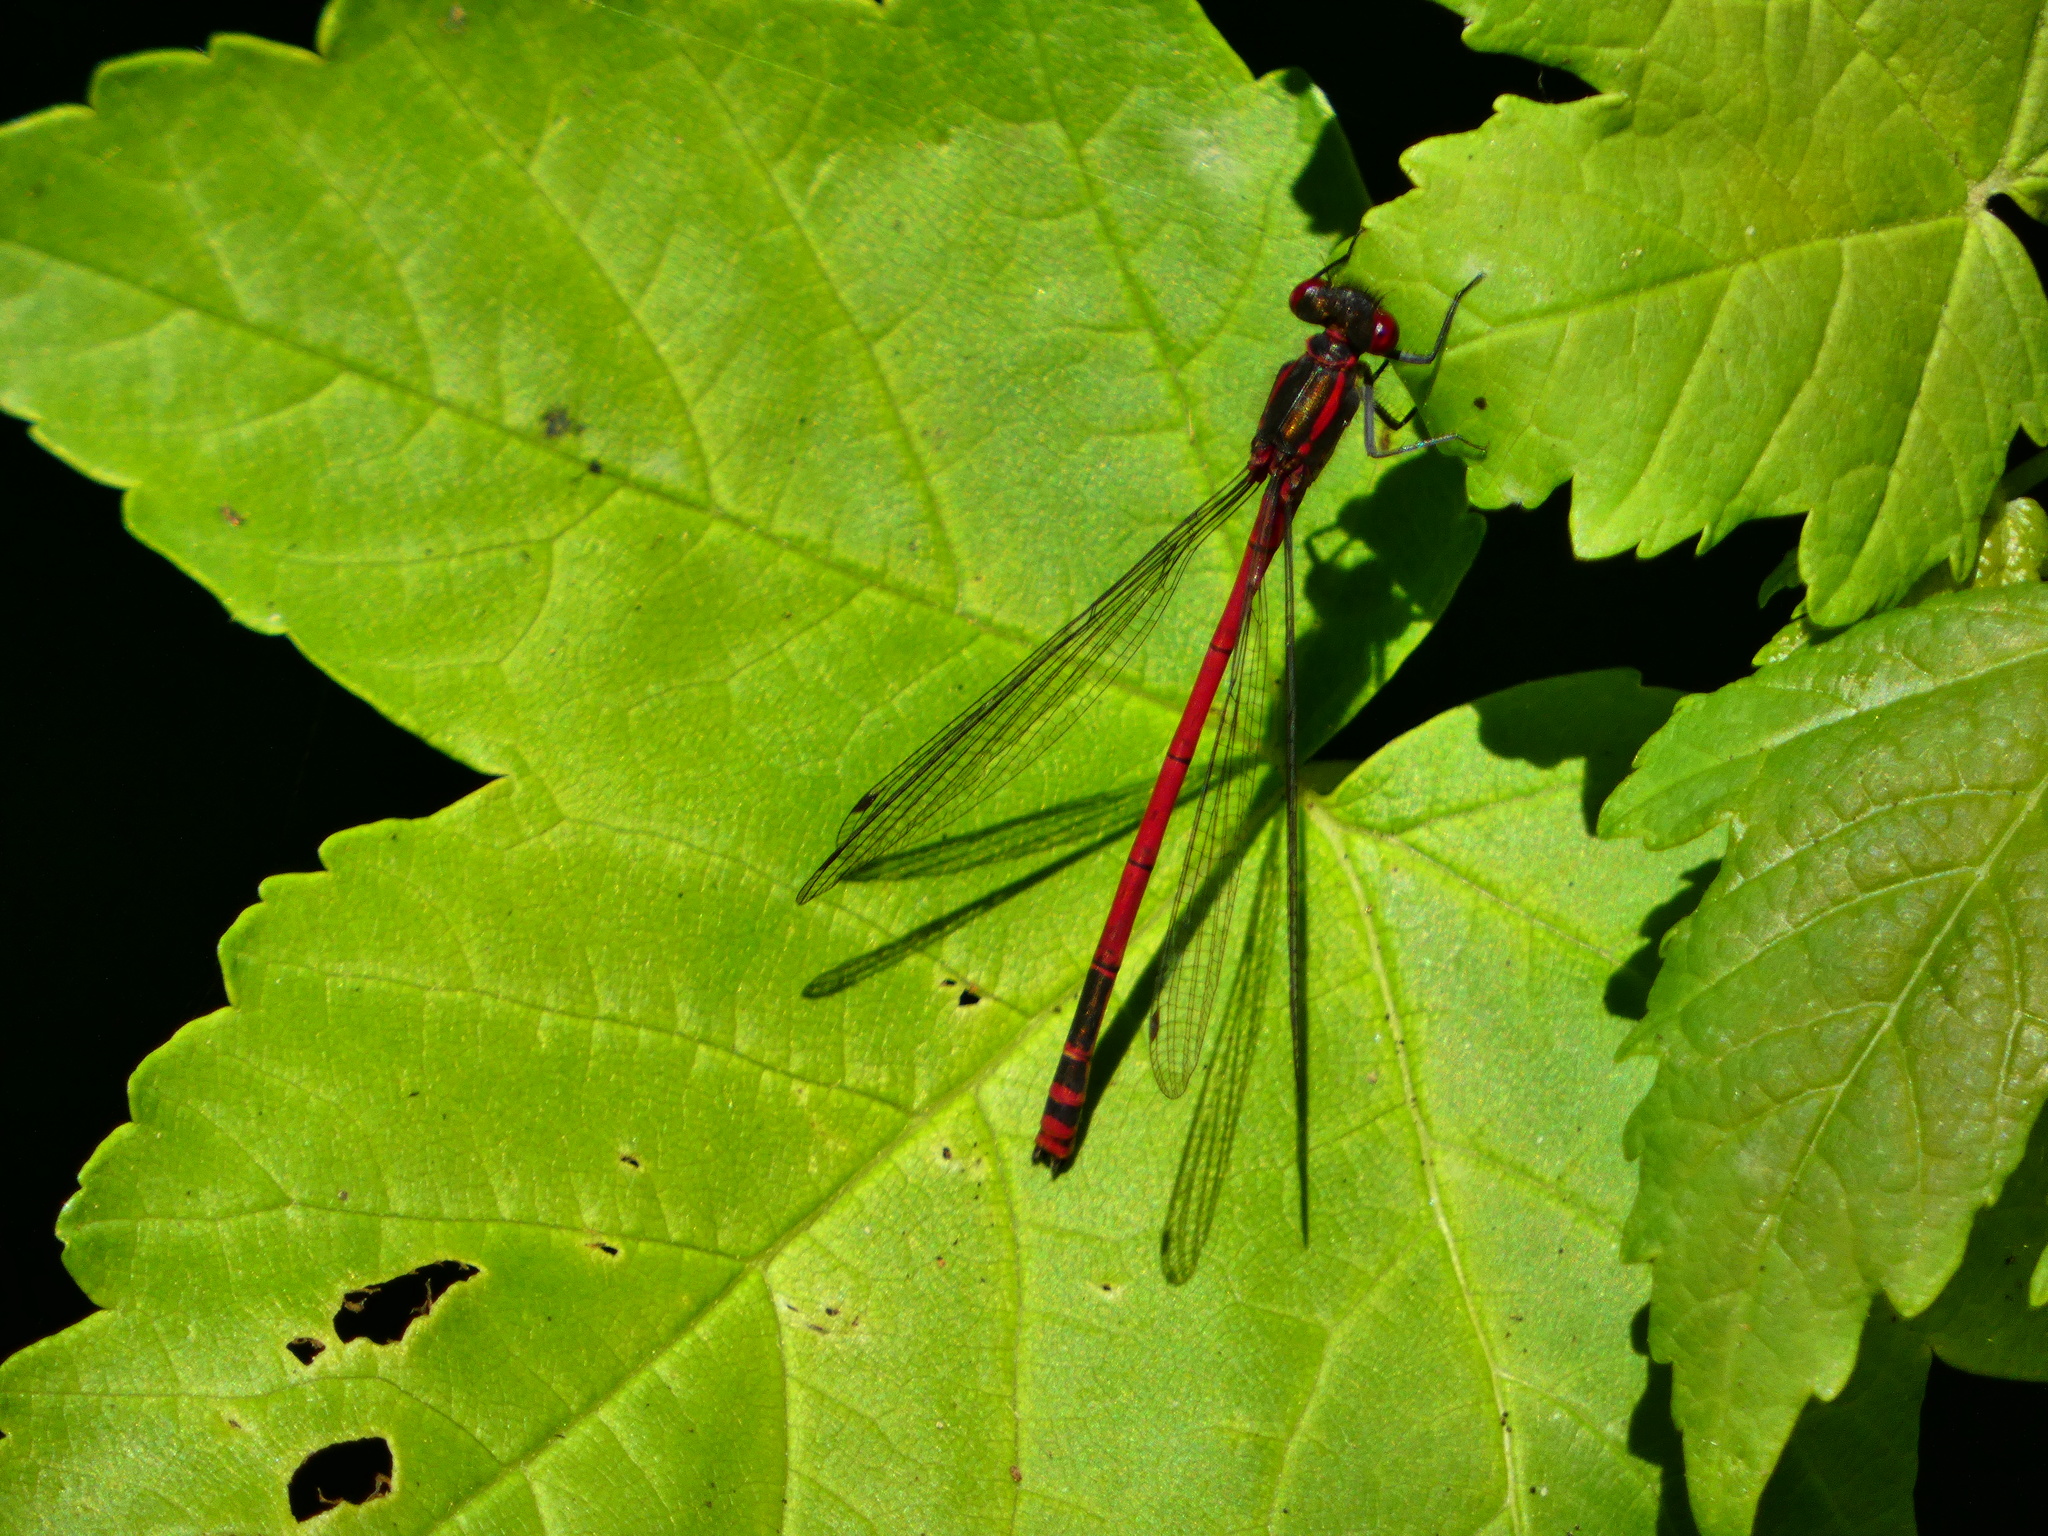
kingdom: Animalia
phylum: Arthropoda
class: Insecta
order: Odonata
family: Coenagrionidae
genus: Pyrrhosoma
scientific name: Pyrrhosoma nymphula
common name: Large red damsel
